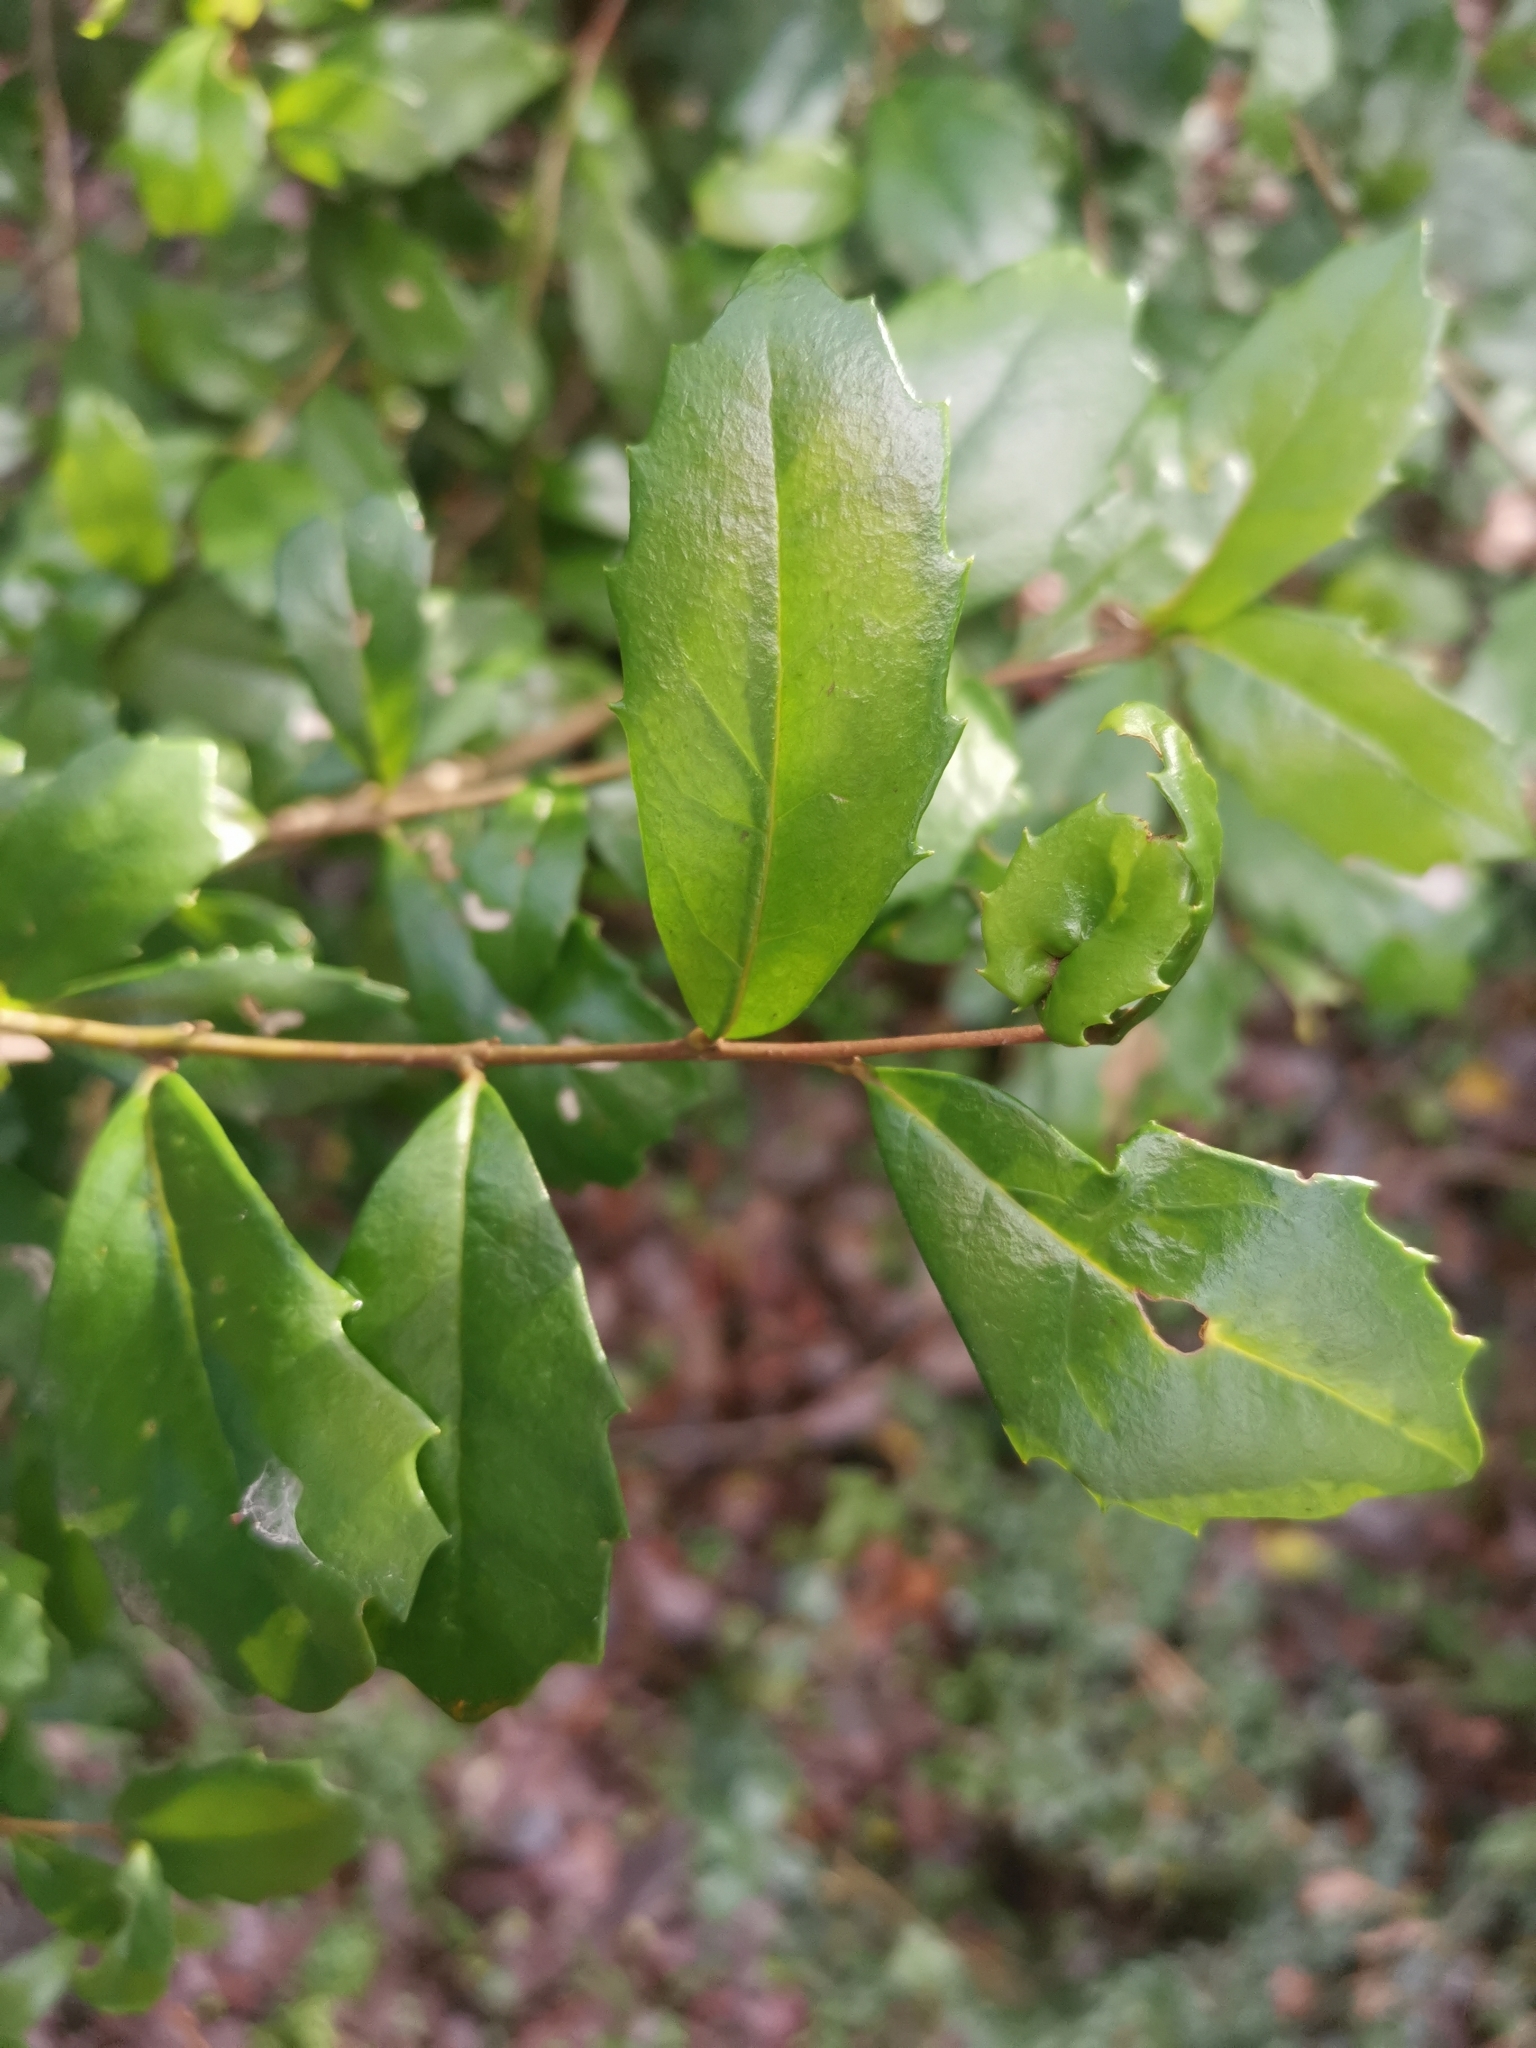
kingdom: Plantae
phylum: Tracheophyta
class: Magnoliopsida
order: Proteales
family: Proteaceae
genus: Lomatia
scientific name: Lomatia dentata
